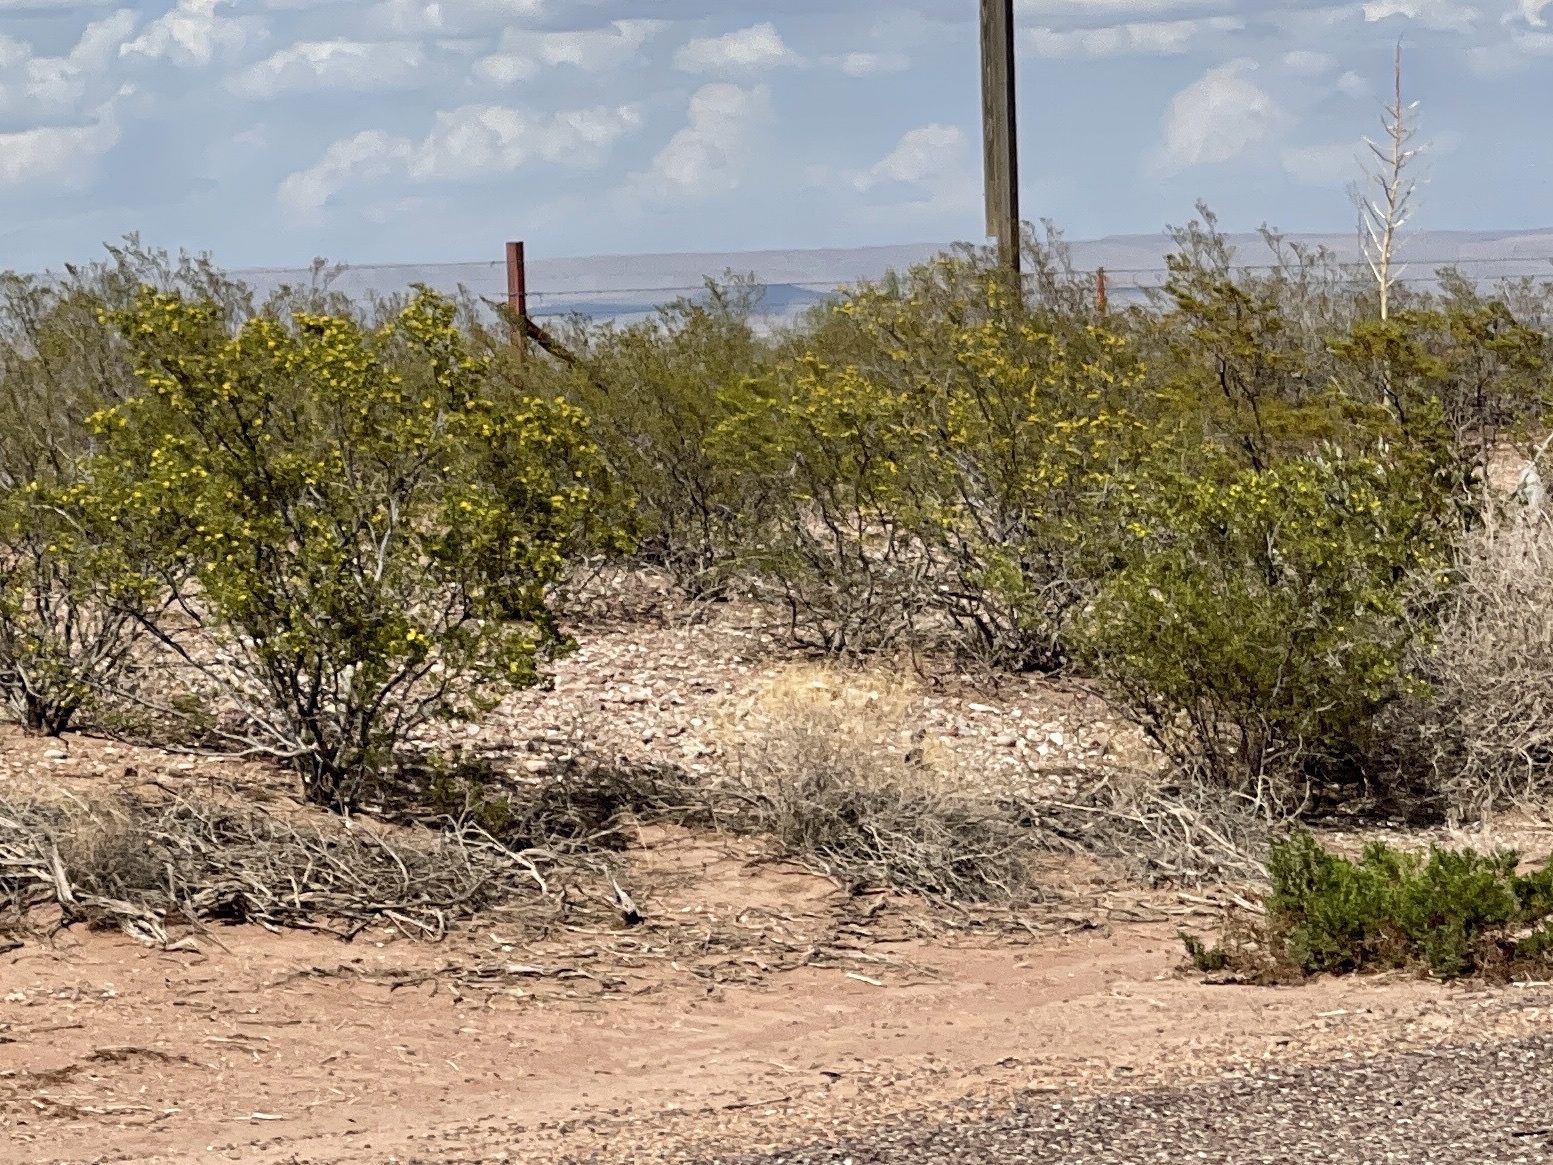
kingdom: Plantae
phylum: Tracheophyta
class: Magnoliopsida
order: Zygophyllales
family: Zygophyllaceae
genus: Larrea
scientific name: Larrea tridentata
